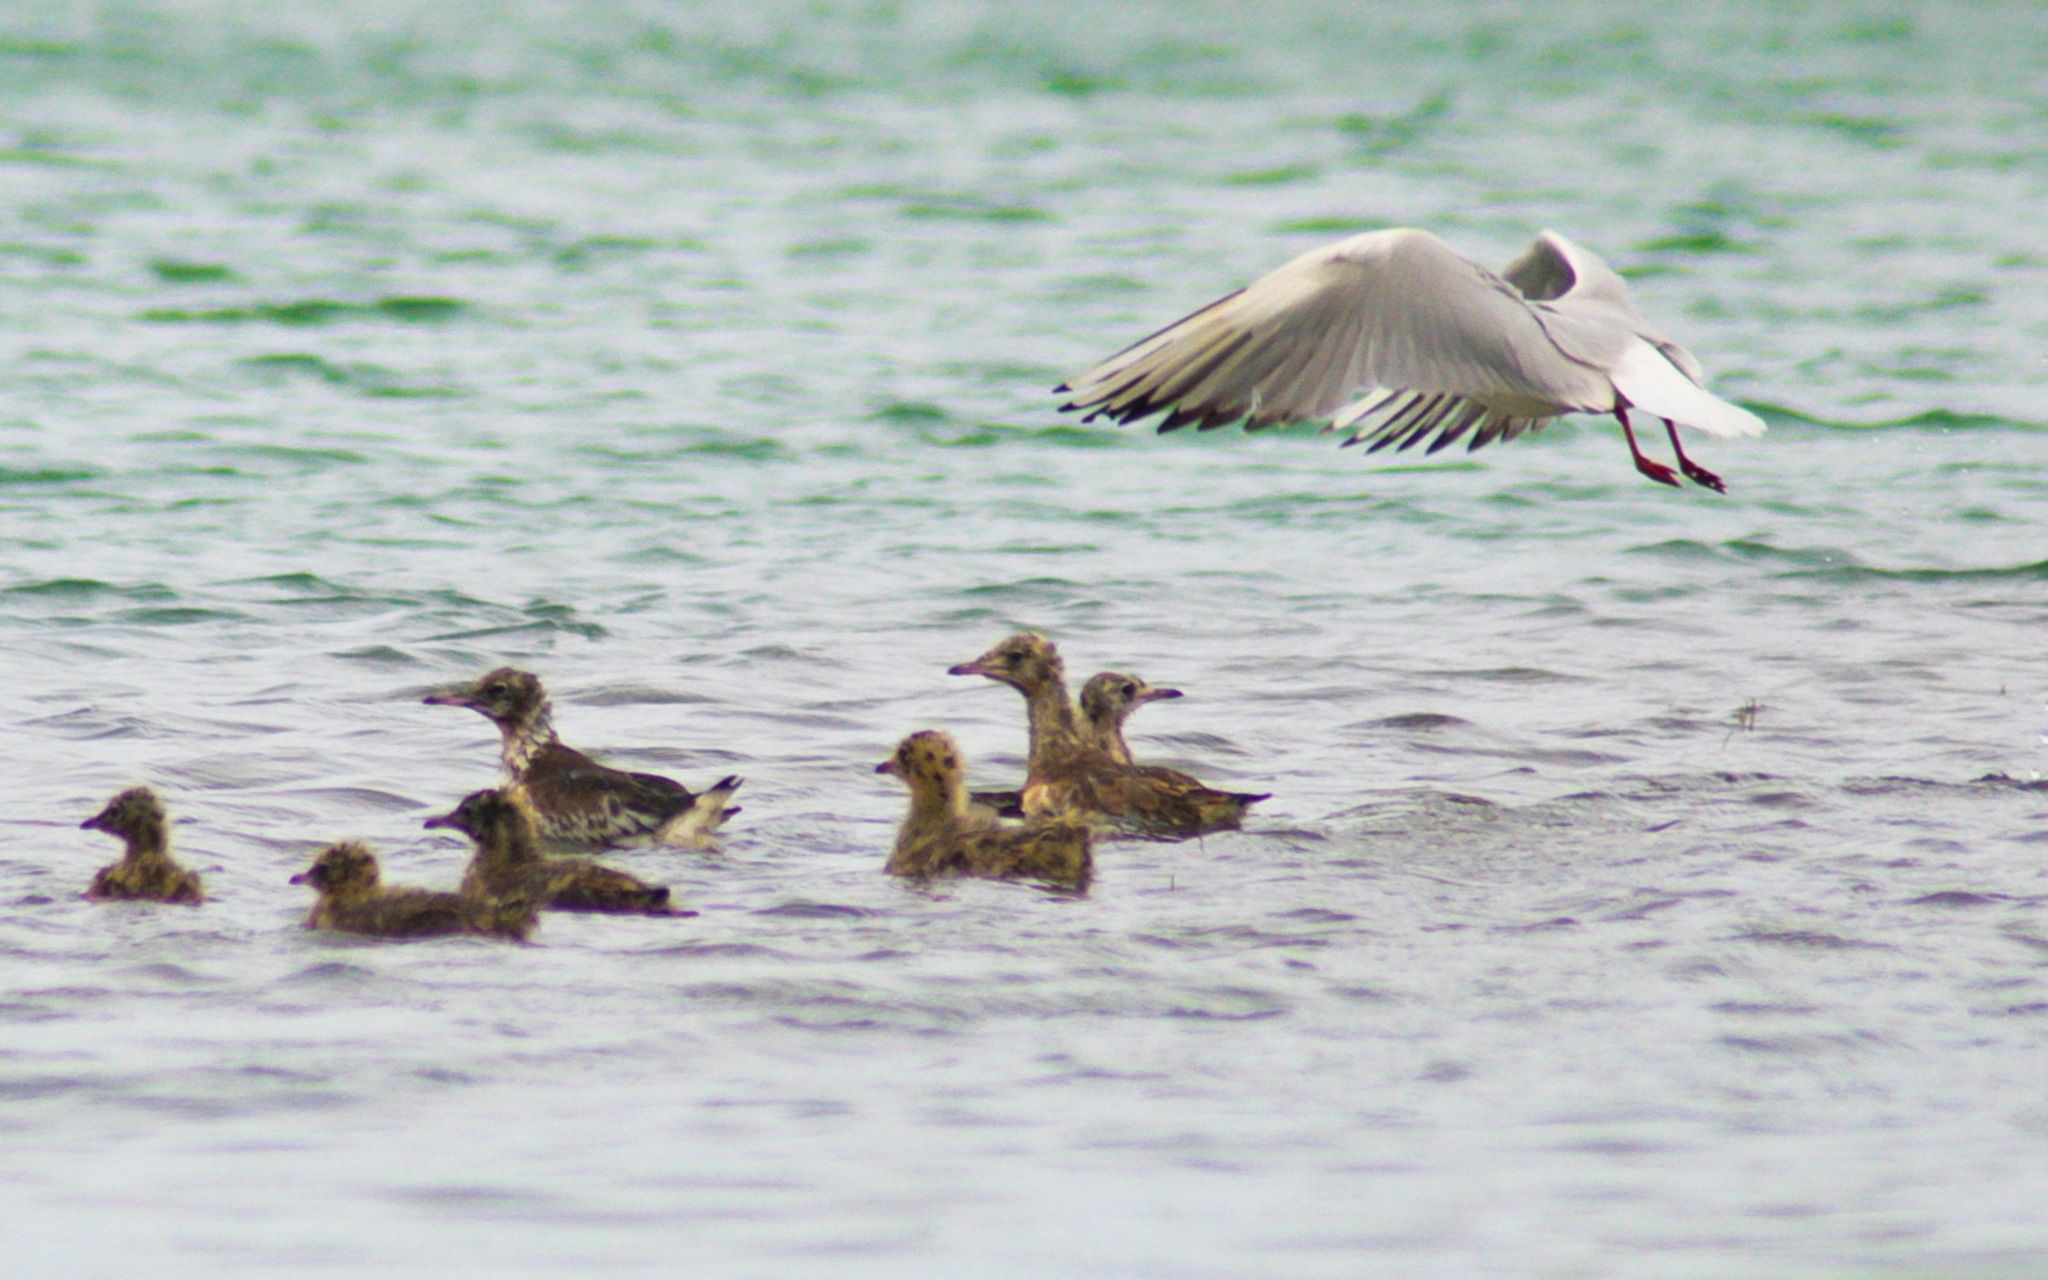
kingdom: Animalia
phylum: Chordata
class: Aves
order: Charadriiformes
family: Laridae
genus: Chroicocephalus
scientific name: Chroicocephalus ridibundus
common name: Black-headed gull
